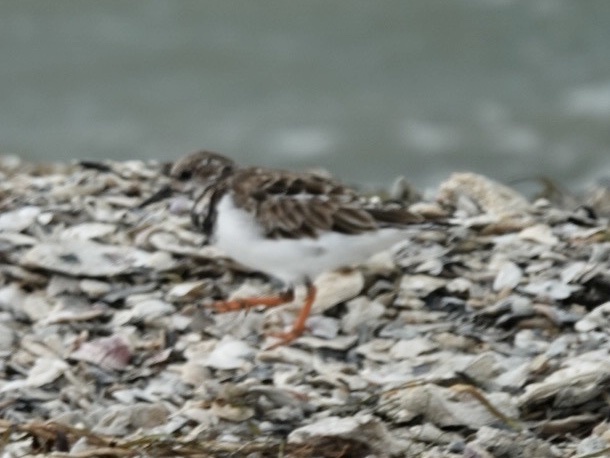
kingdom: Animalia
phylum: Chordata
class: Aves
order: Charadriiformes
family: Scolopacidae
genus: Arenaria
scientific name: Arenaria interpres
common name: Ruddy turnstone
